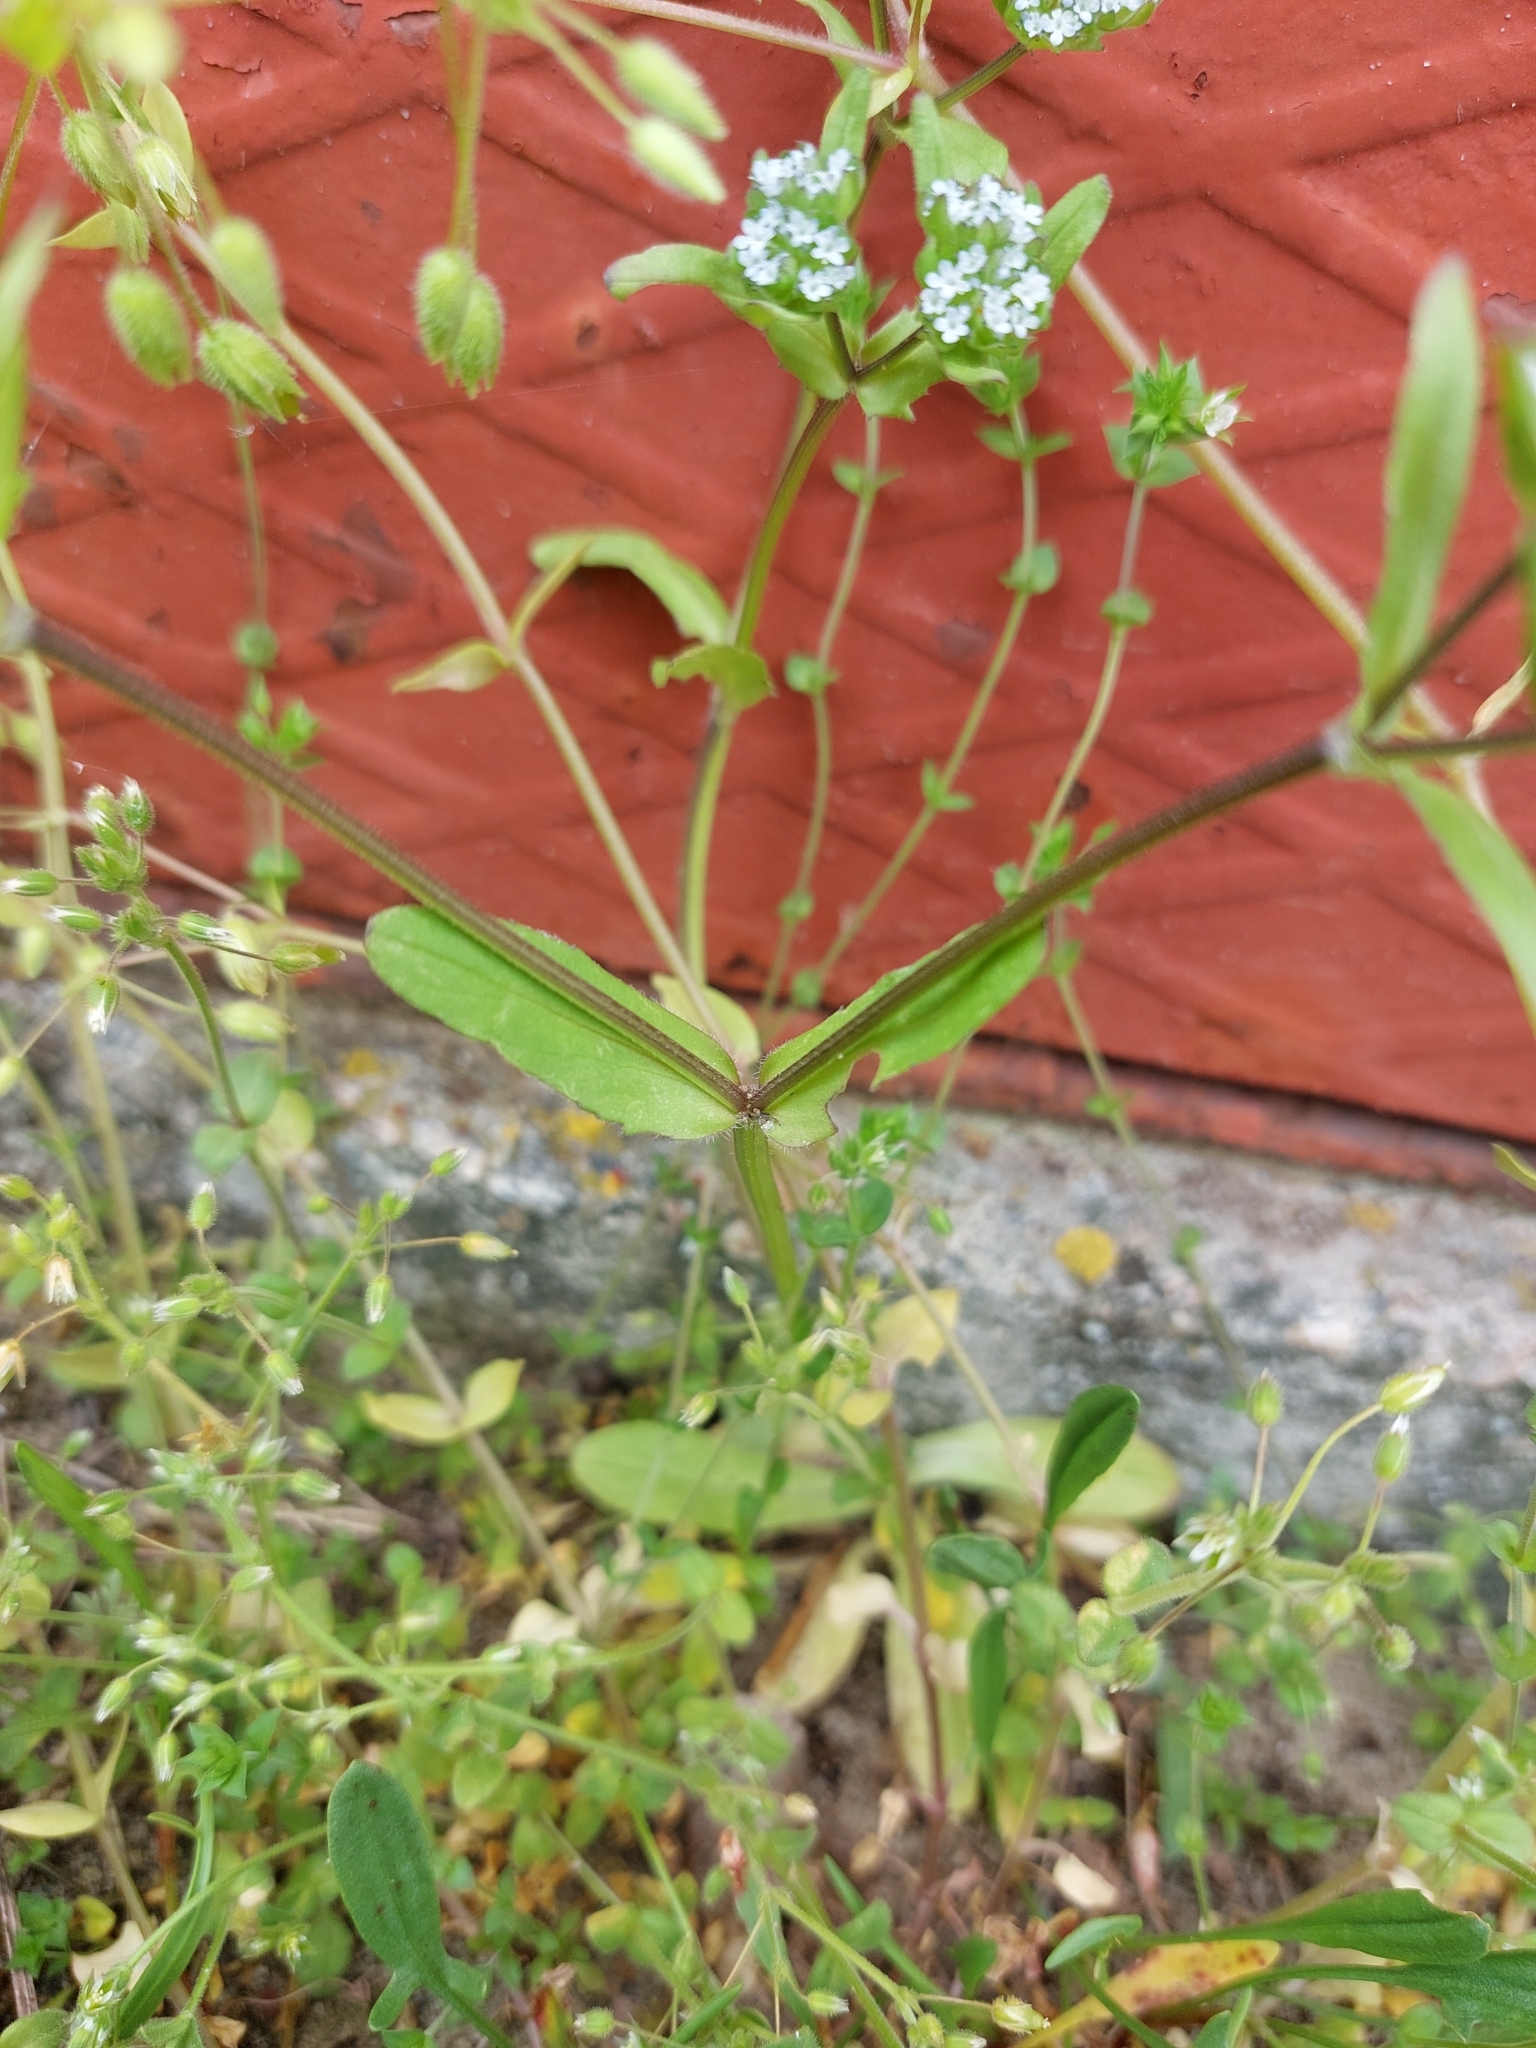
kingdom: Plantae
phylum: Tracheophyta
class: Magnoliopsida
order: Dipsacales
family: Caprifoliaceae
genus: Valerianella
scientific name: Valerianella locusta
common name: Common cornsalad
